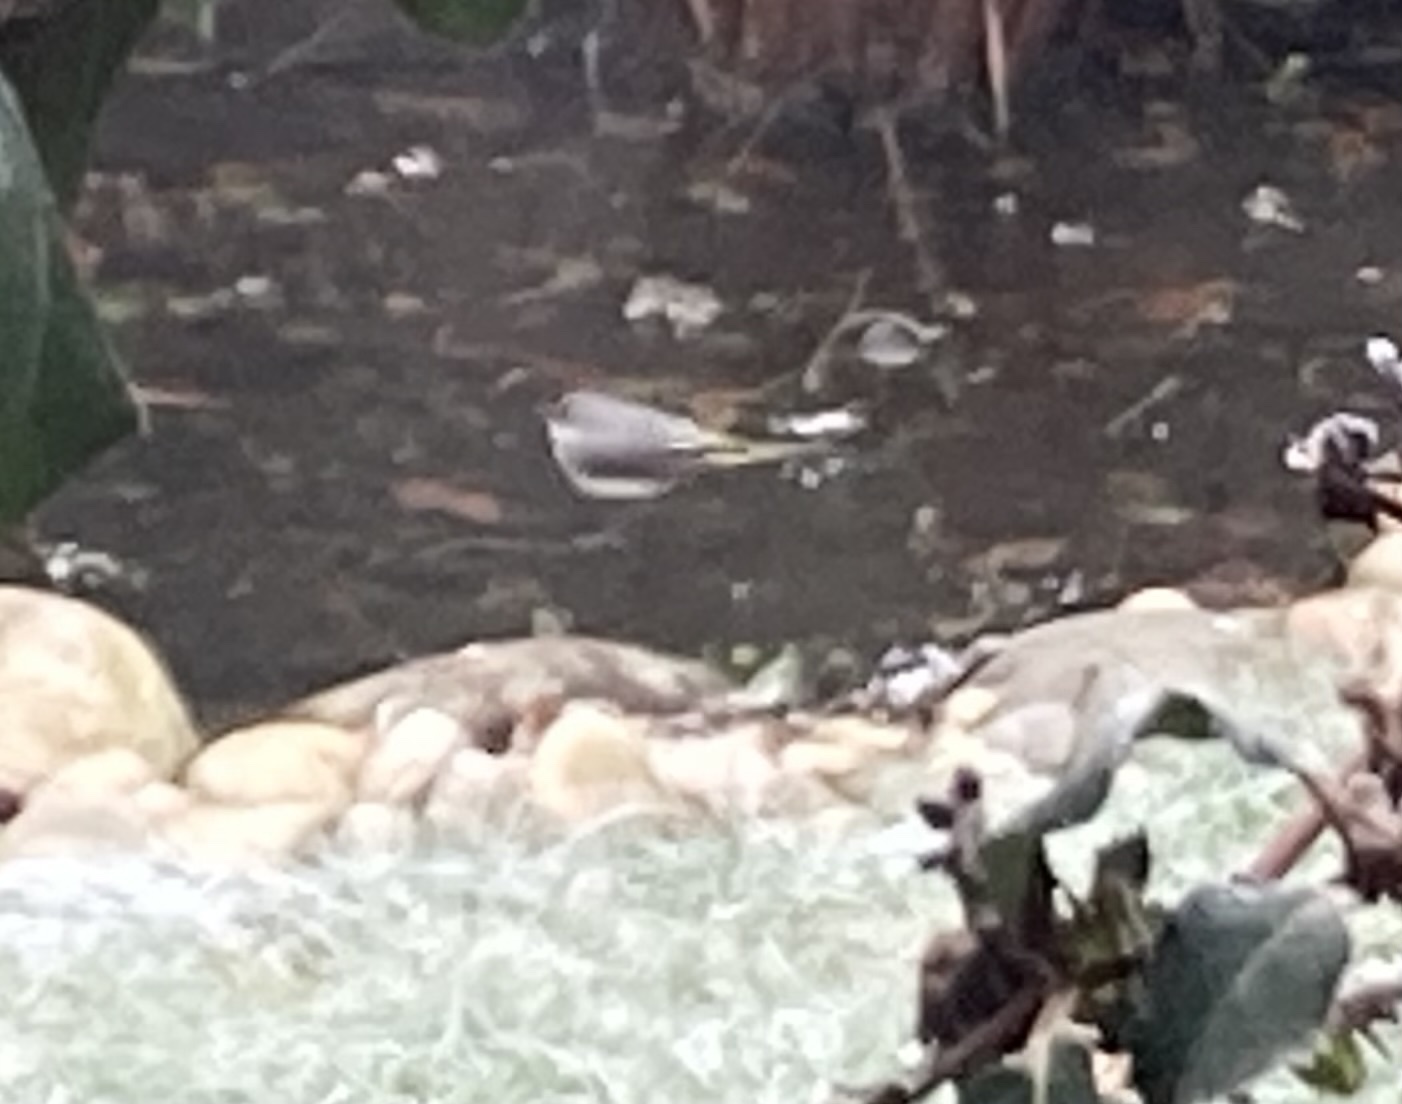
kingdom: Animalia
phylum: Chordata
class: Aves
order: Passeriformes
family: Motacillidae
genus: Motacilla
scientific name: Motacilla cinerea
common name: Grey wagtail
